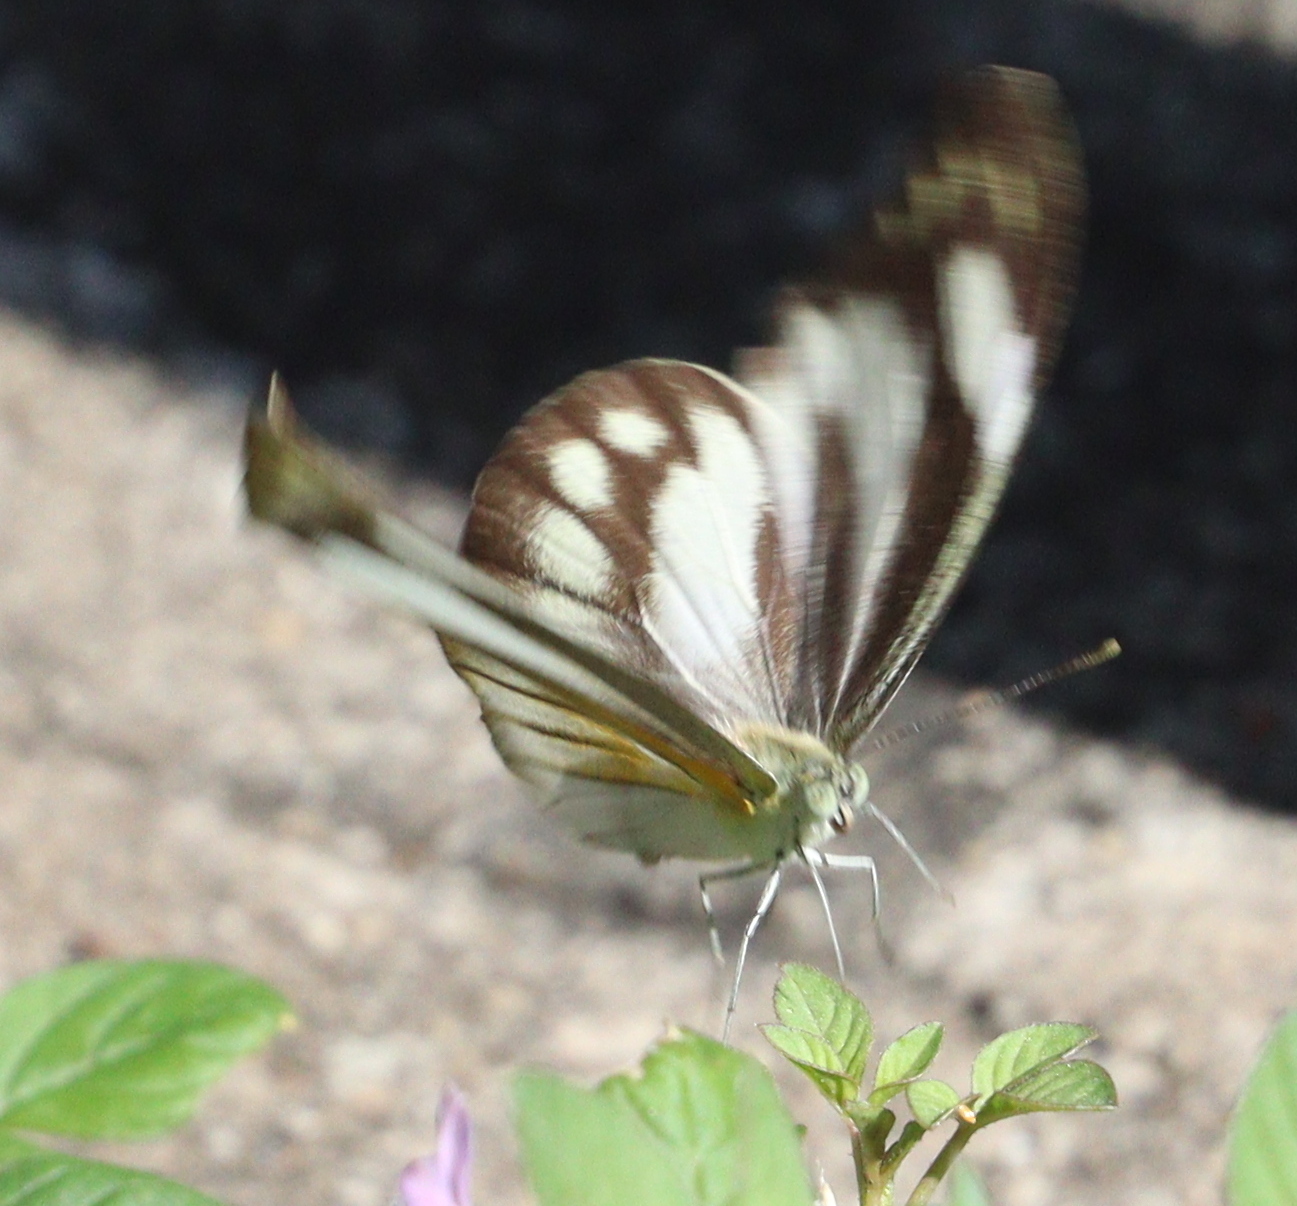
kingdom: Animalia
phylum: Arthropoda
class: Insecta
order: Lepidoptera
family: Pieridae
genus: Appias
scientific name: Appias libythea
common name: Striped albatross
